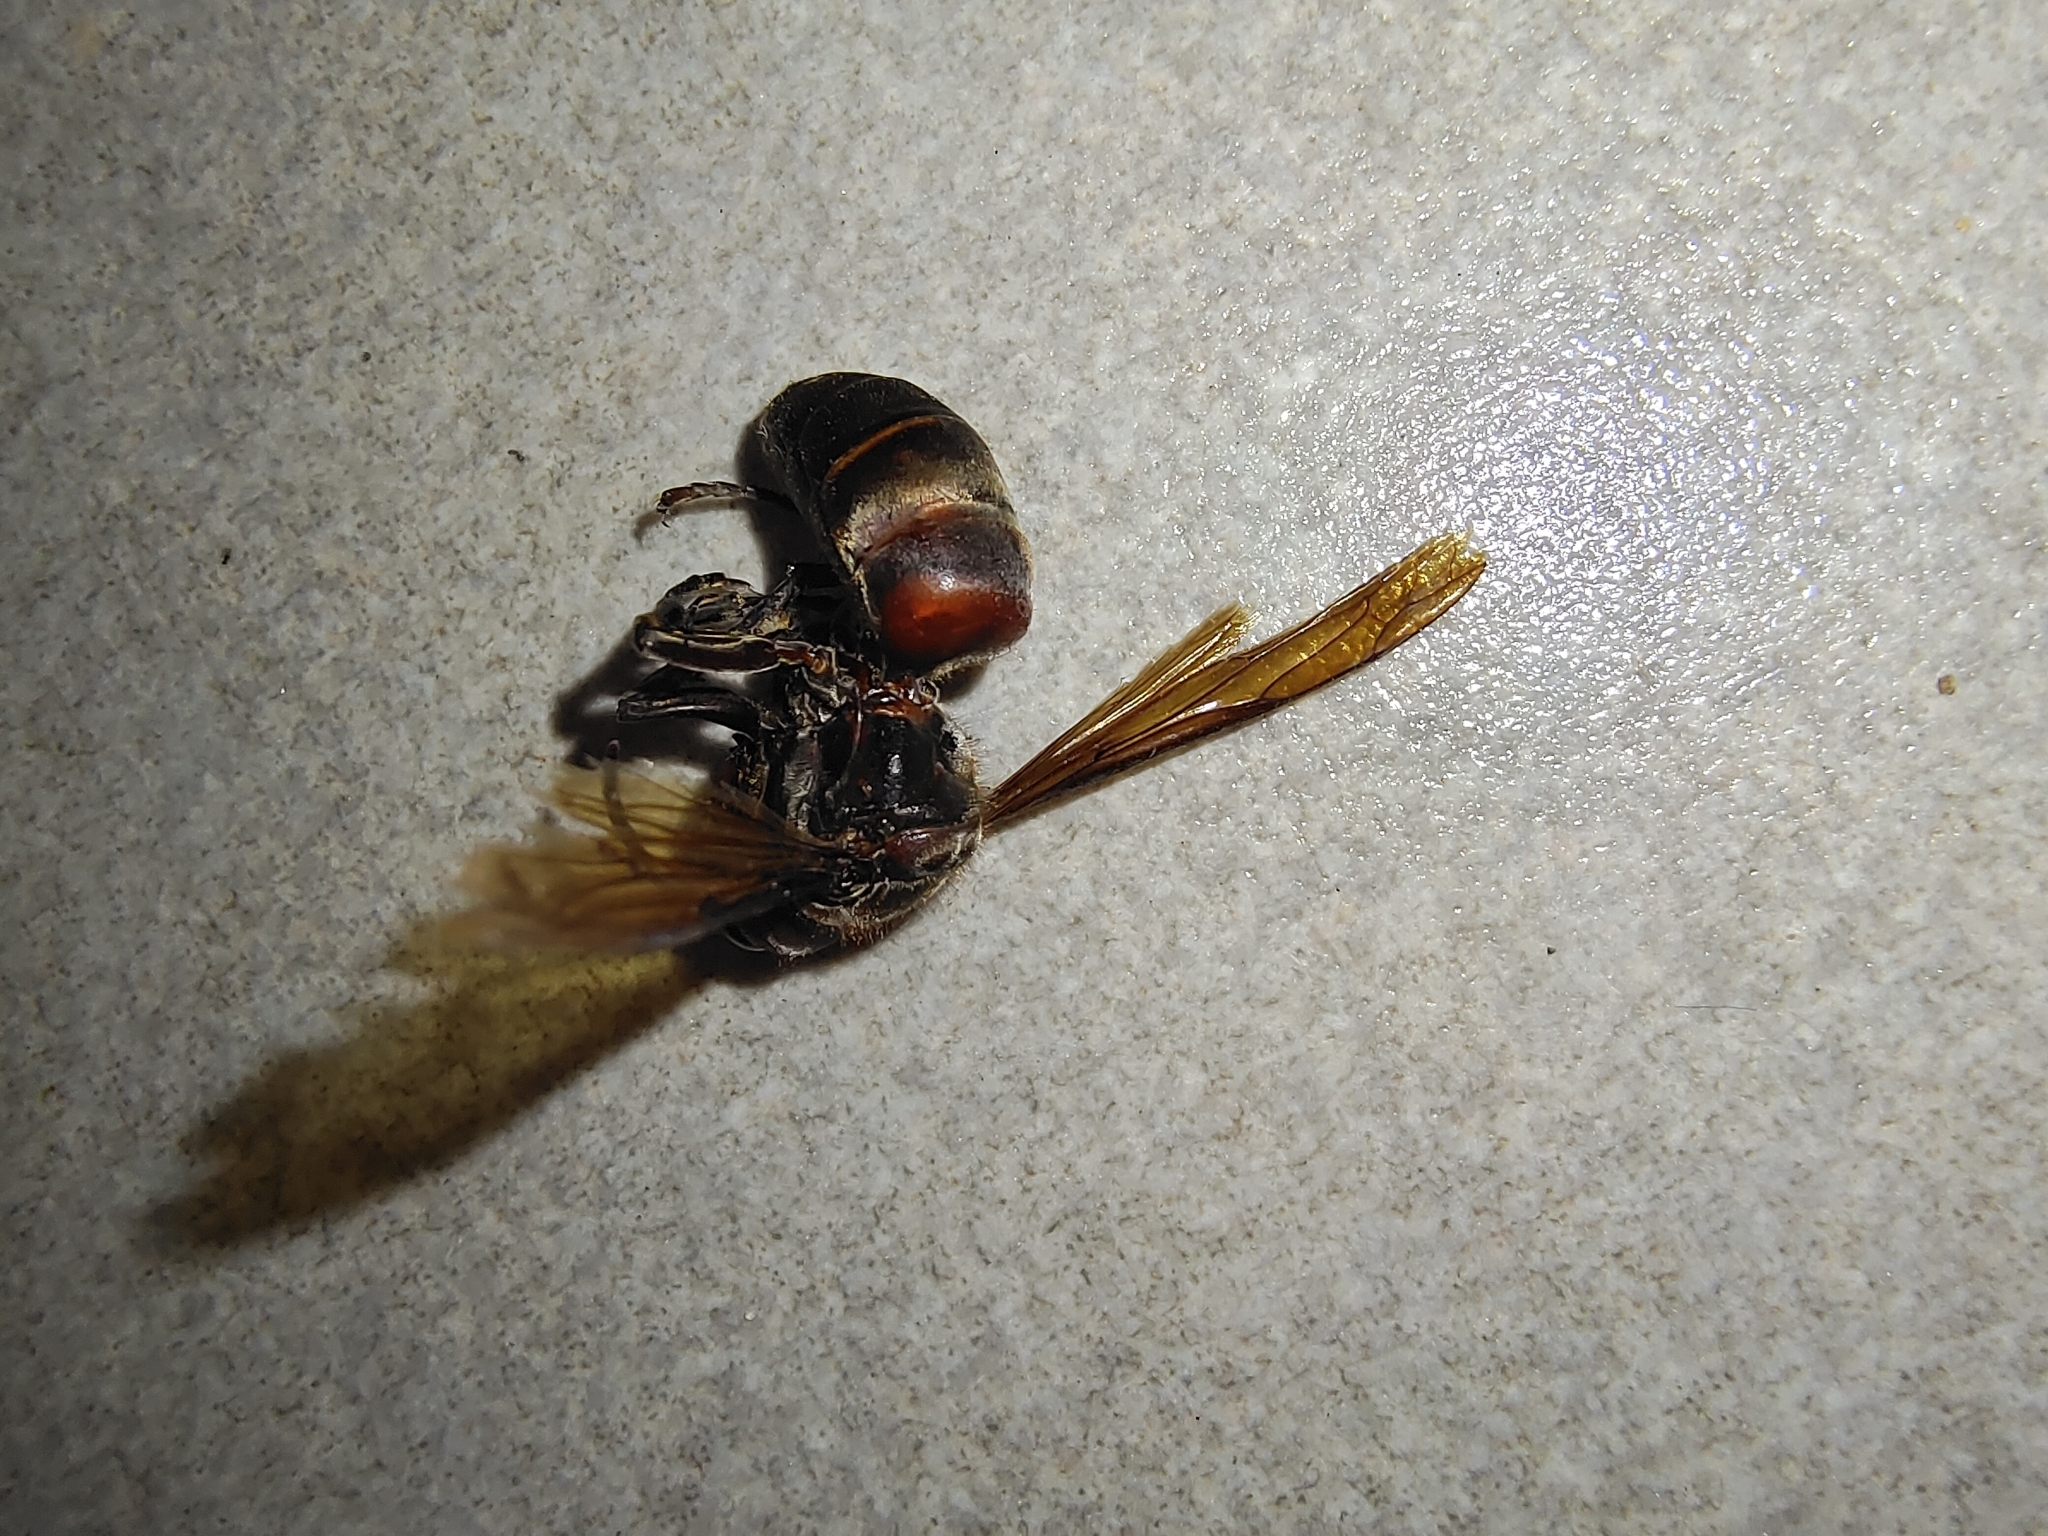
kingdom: Animalia
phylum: Arthropoda
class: Insecta
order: Hymenoptera
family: Vespidae
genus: Vespa
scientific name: Vespa analis
